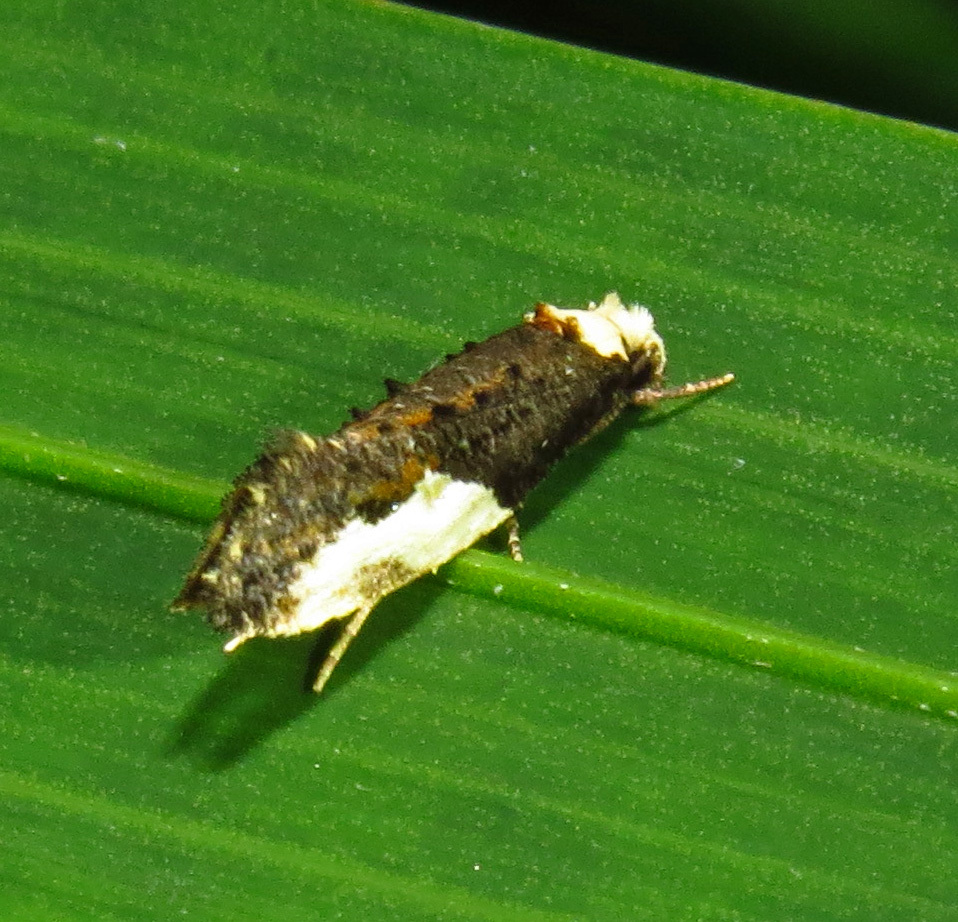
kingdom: Animalia
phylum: Arthropoda
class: Insecta
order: Lepidoptera
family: Tineidae
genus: Monopis
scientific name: Monopis longella
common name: Pavlovski's monopis moth
